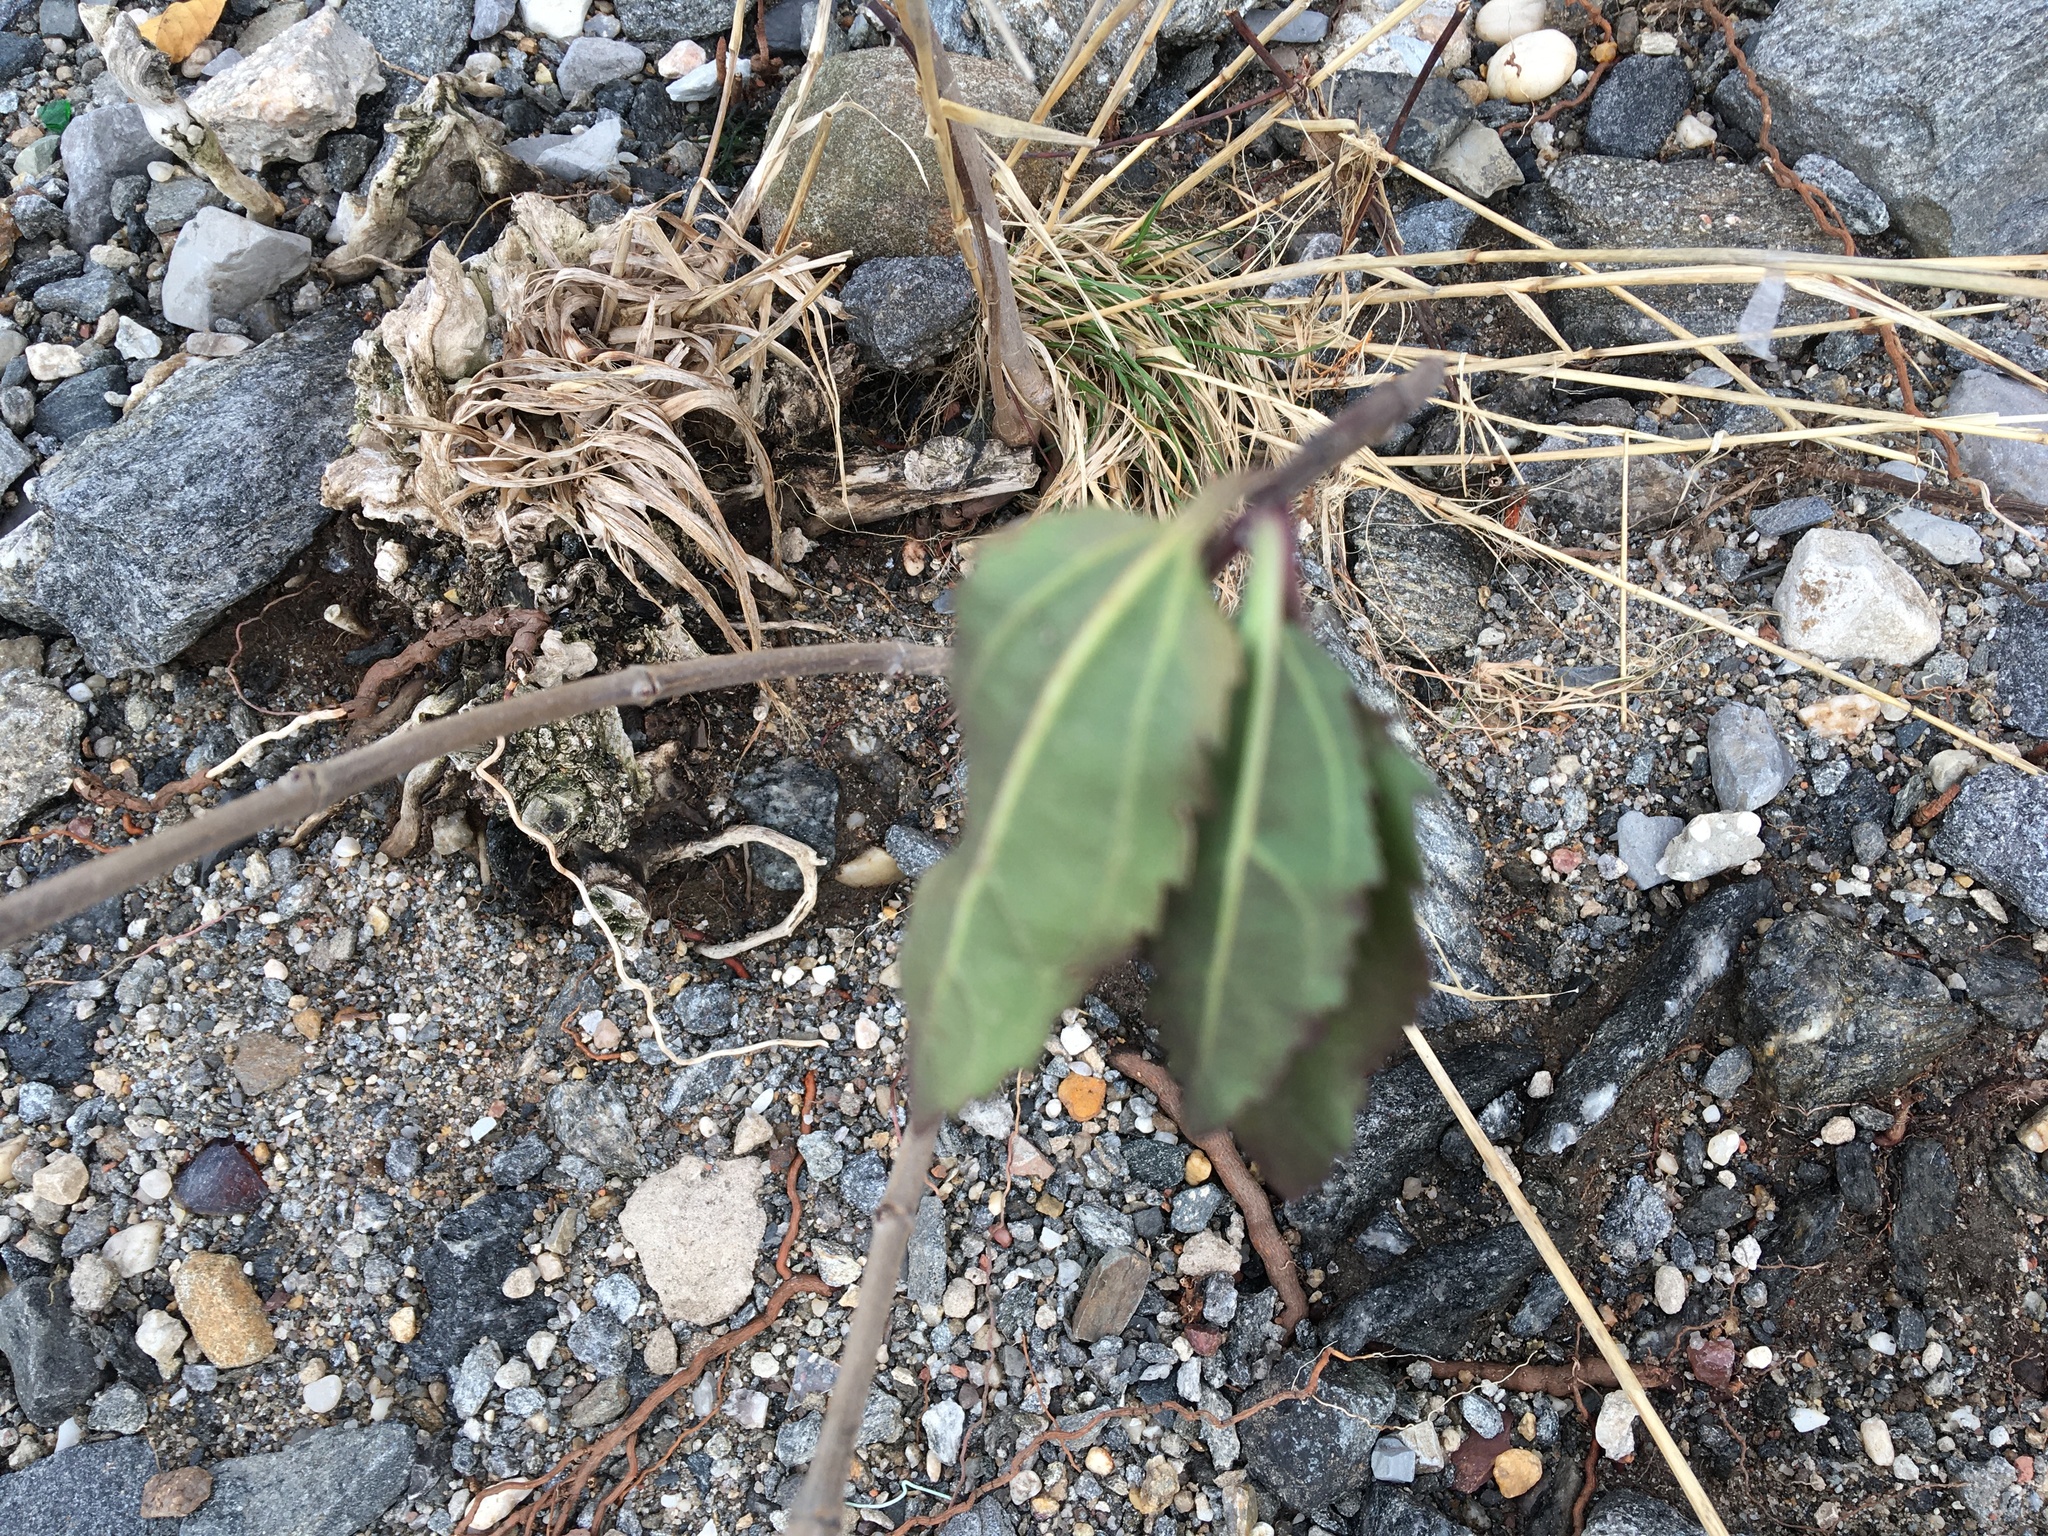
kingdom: Plantae
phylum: Tracheophyta
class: Magnoliopsida
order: Asterales
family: Asteraceae
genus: Iva
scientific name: Iva frutescens
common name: Big-leaved marsh-elder
